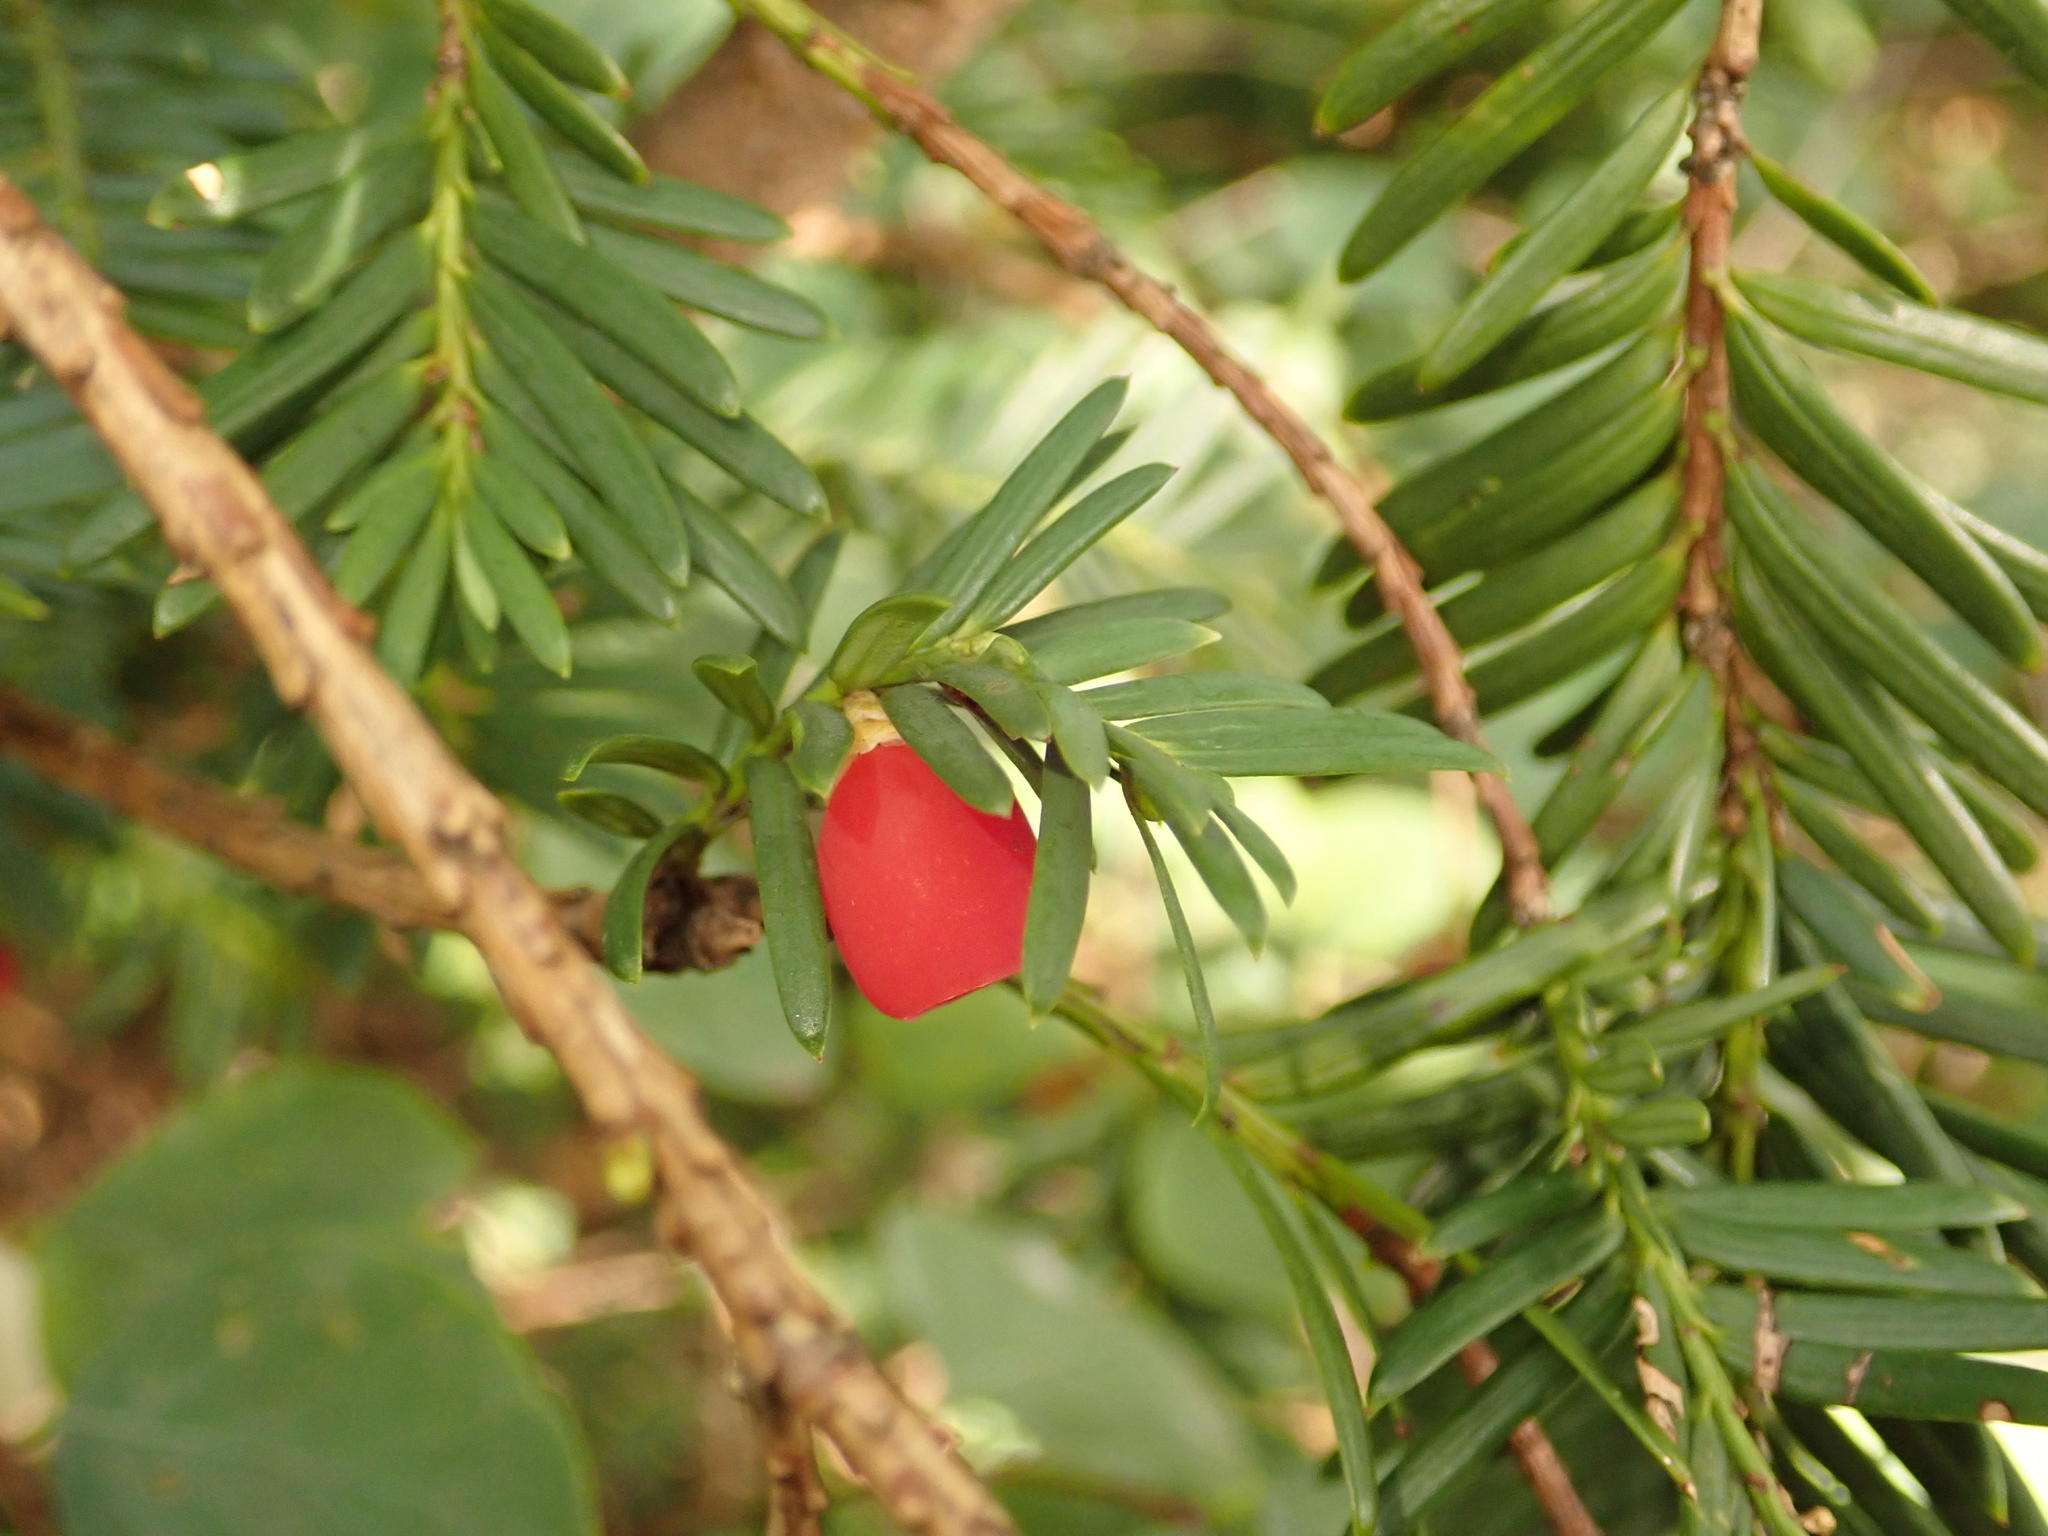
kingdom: Plantae
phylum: Tracheophyta
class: Pinopsida
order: Pinales
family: Taxaceae
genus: Taxus
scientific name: Taxus baccata
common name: Yew
